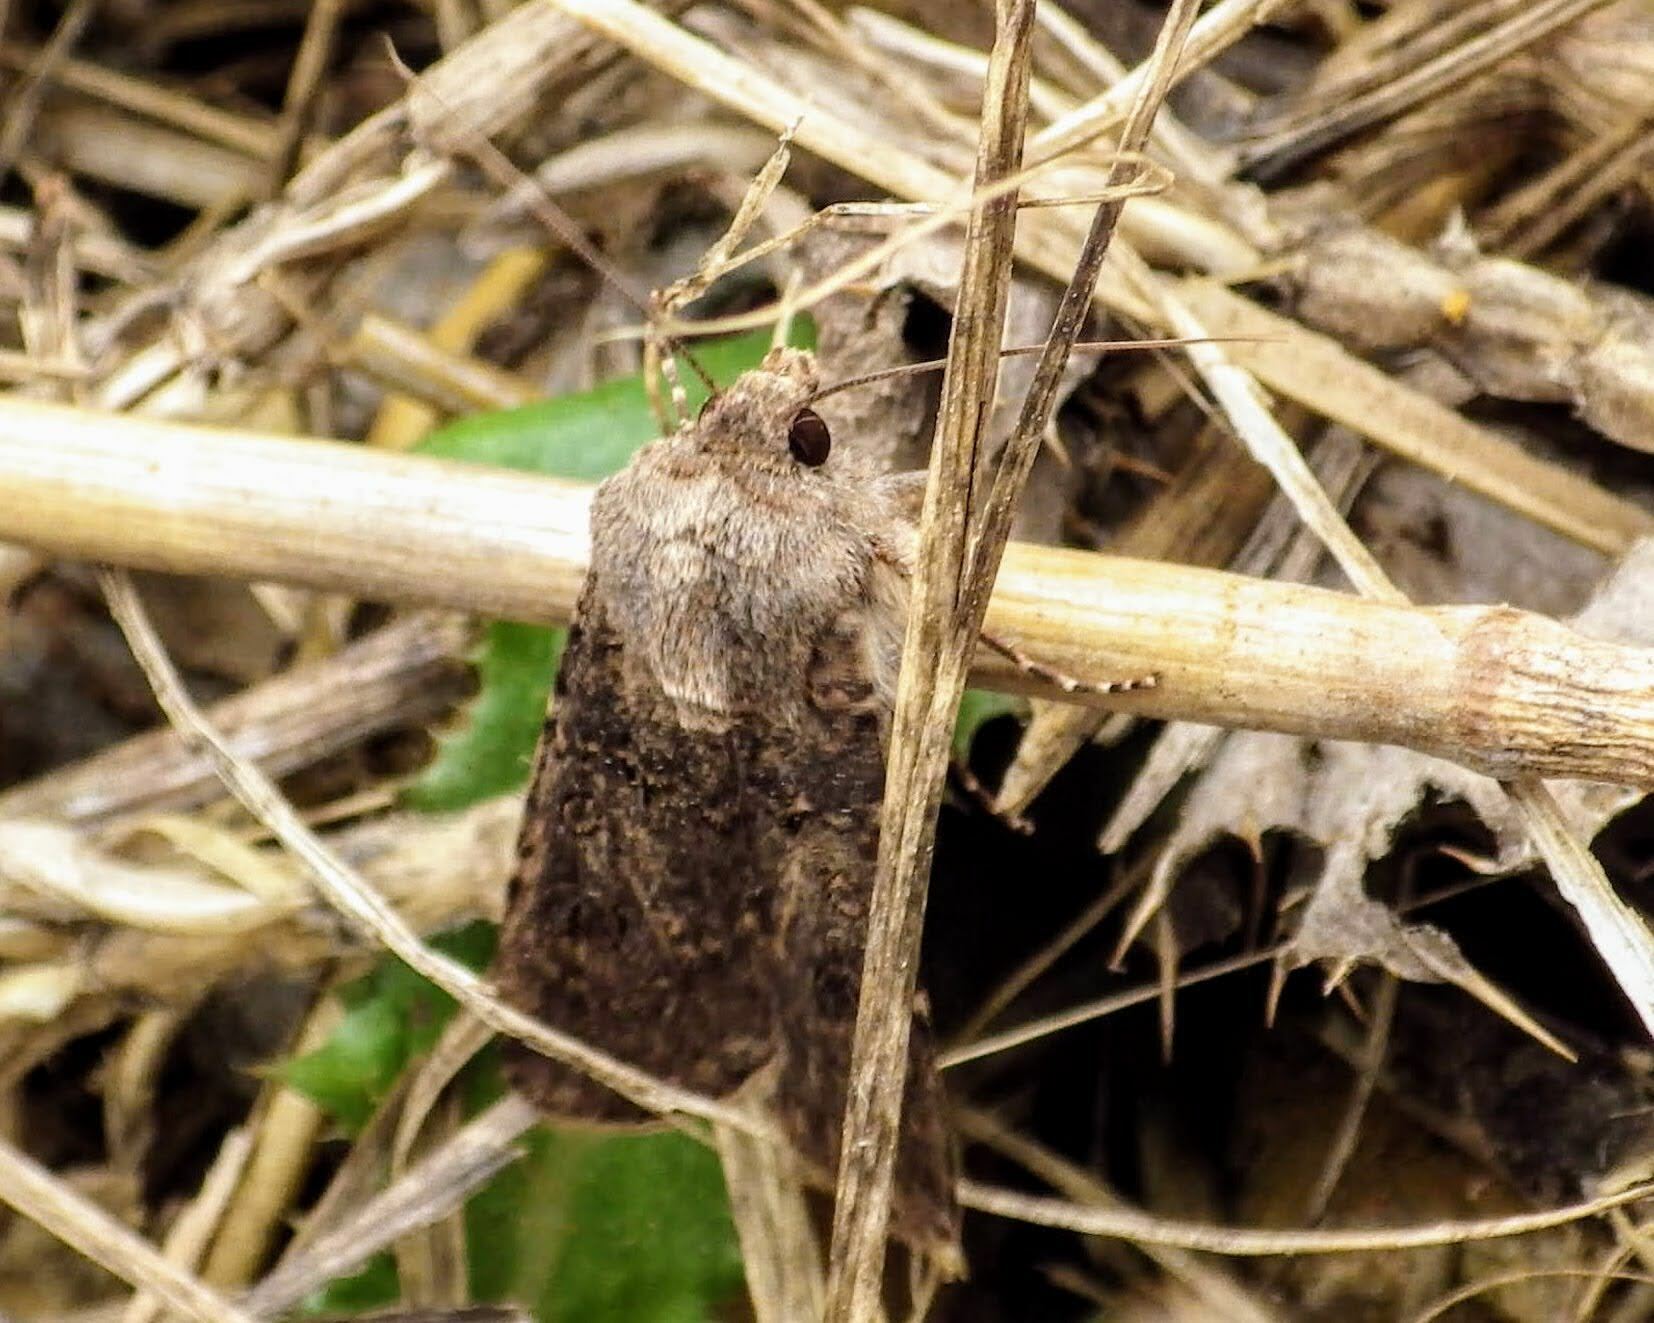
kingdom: Animalia
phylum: Arthropoda
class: Insecta
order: Lepidoptera
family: Noctuidae
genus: Agrotis
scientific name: Agrotis segetum
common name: Turnip moth
